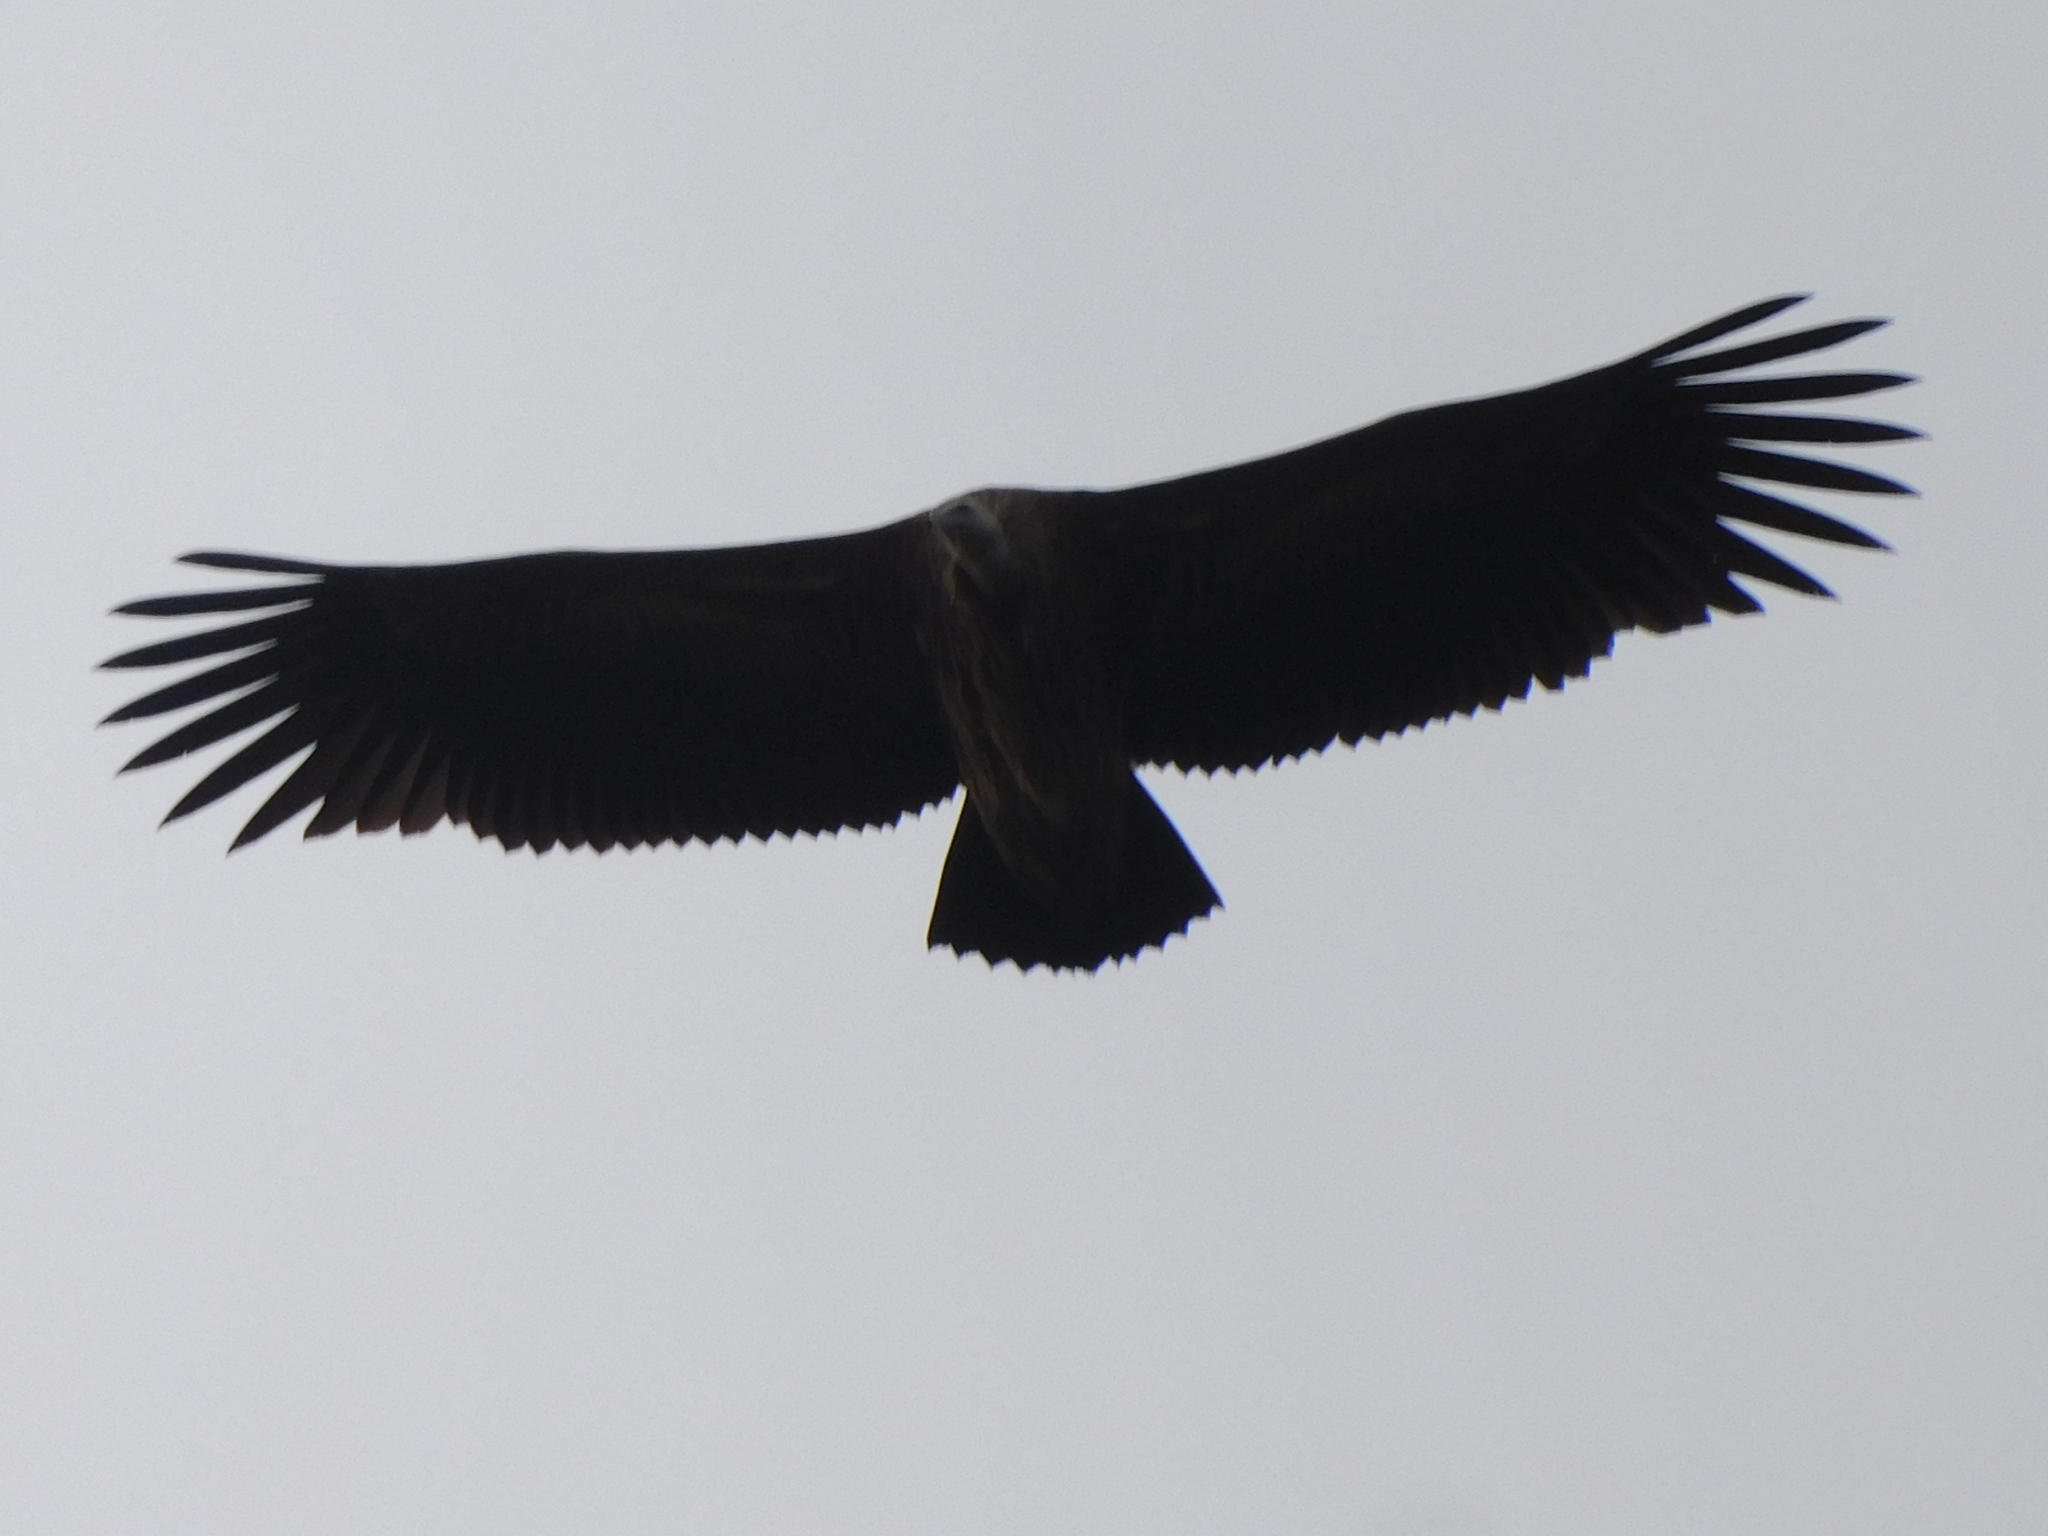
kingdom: Animalia
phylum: Chordata
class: Aves
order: Accipitriformes
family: Accipitridae
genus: Gyps
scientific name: Gyps himalayensis
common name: Himalayan griffon
